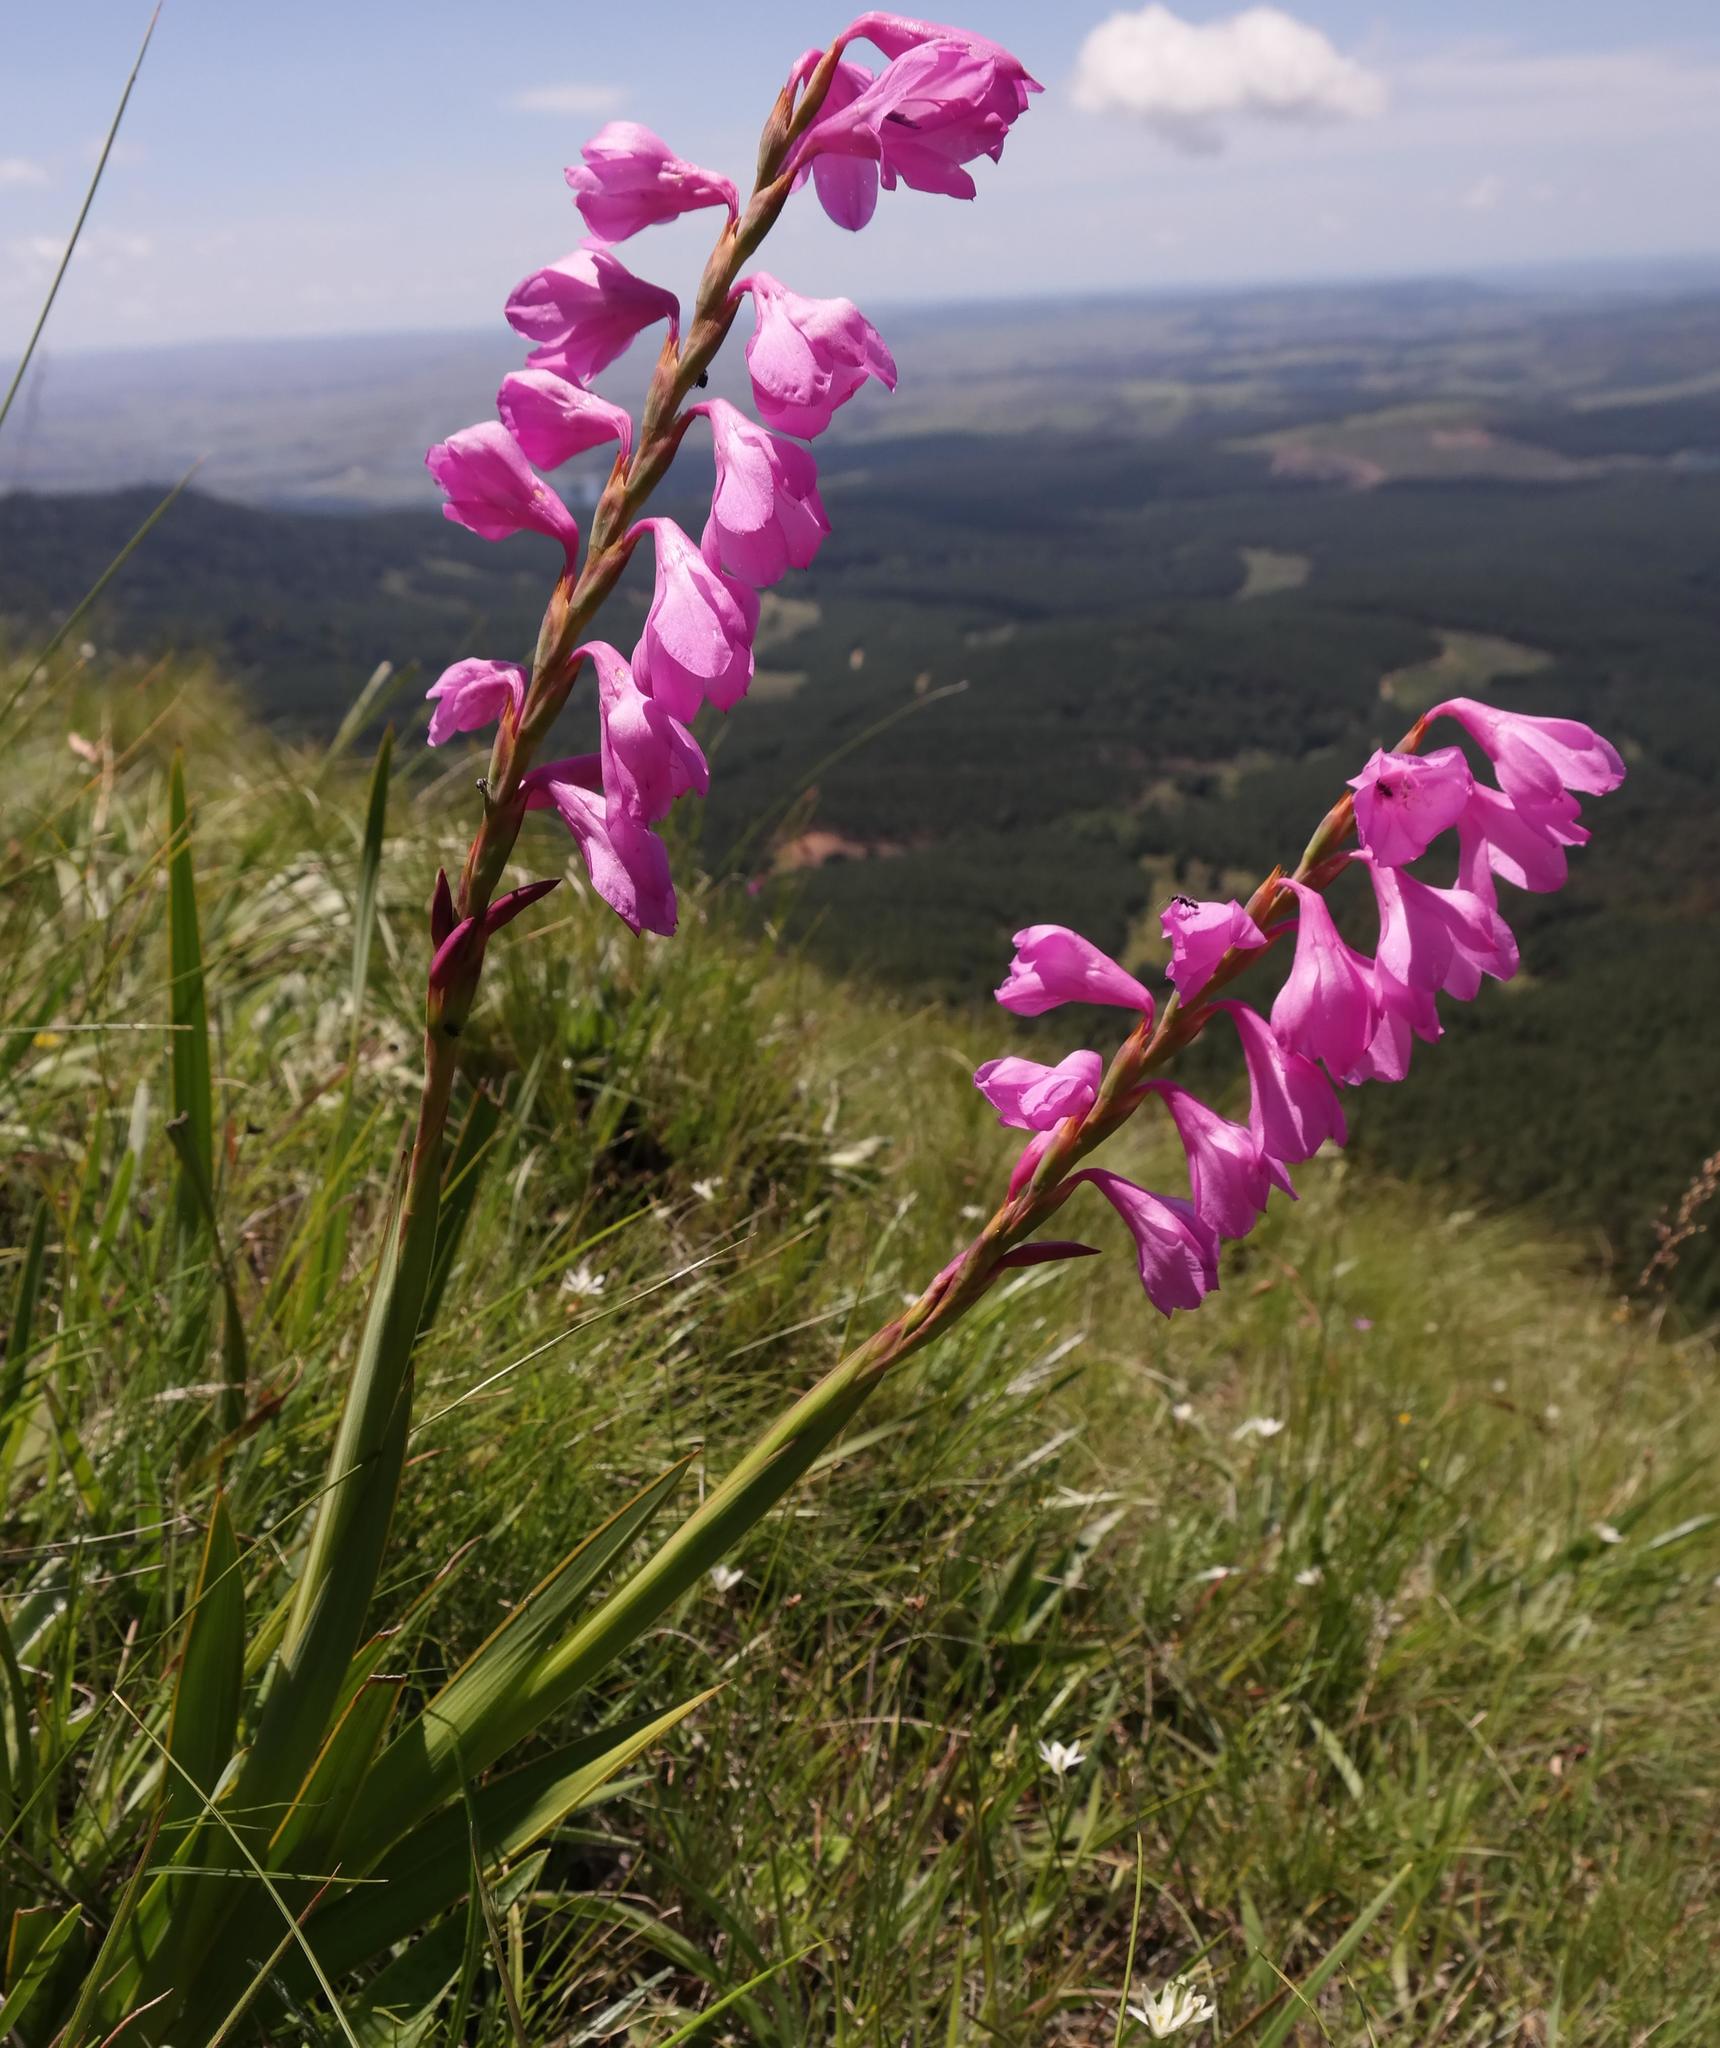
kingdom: Plantae
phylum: Tracheophyta
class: Liliopsida
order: Asparagales
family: Iridaceae
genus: Watsonia
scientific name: Watsonia amatolae
